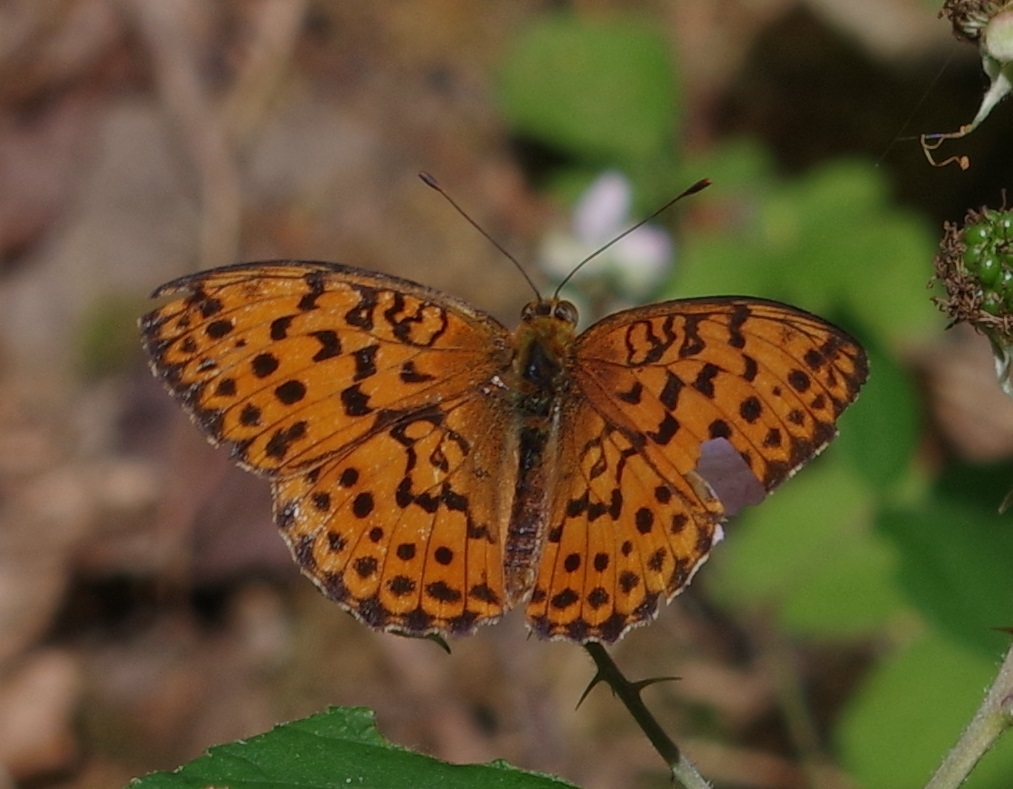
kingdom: Animalia
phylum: Arthropoda
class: Insecta
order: Lepidoptera
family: Nymphalidae
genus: Brenthis
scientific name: Brenthis daphne
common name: Marbled fritillary
